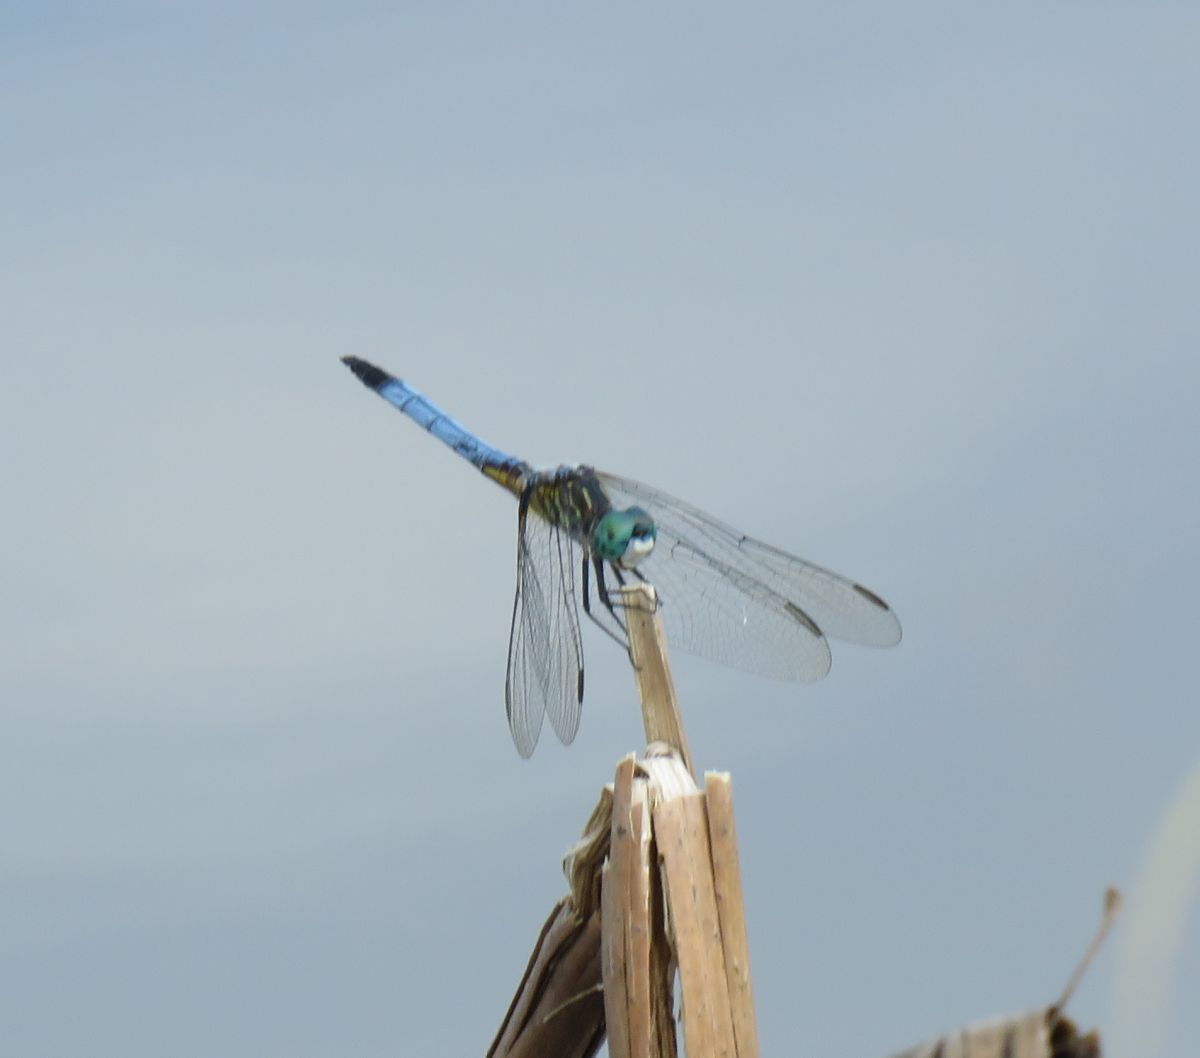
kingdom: Animalia
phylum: Arthropoda
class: Insecta
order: Odonata
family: Libellulidae
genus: Pachydiplax
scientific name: Pachydiplax longipennis
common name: Blue dasher
